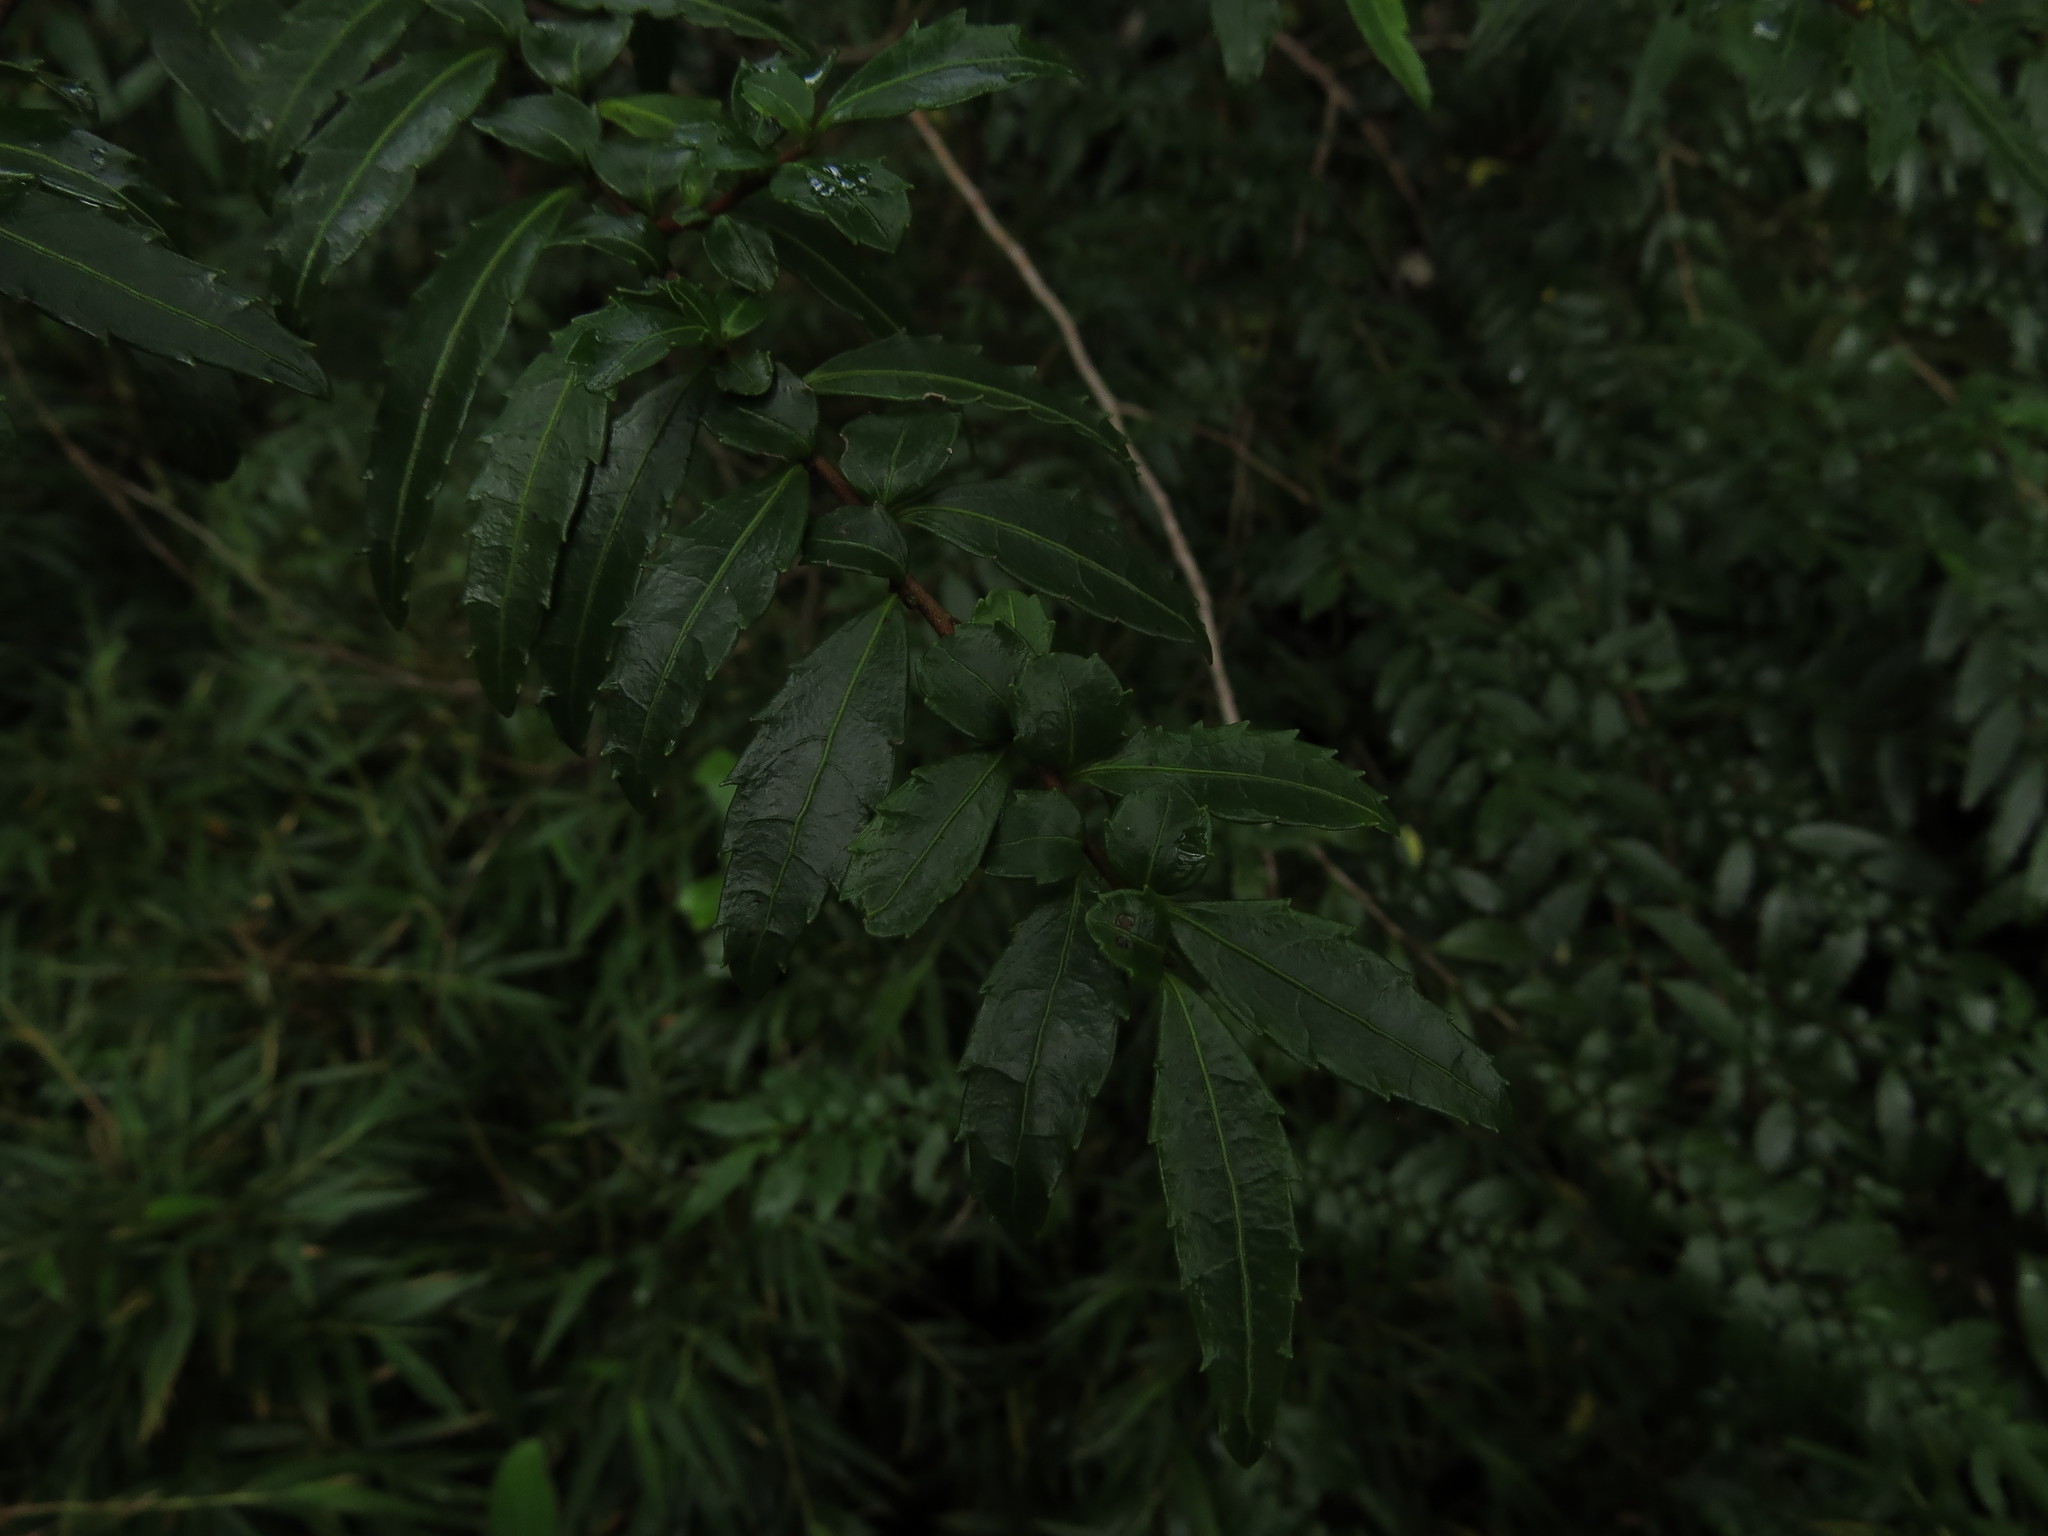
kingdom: Plantae
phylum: Tracheophyta
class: Magnoliopsida
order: Malpighiales
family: Salicaceae
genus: Azara
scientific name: Azara lanceolata
